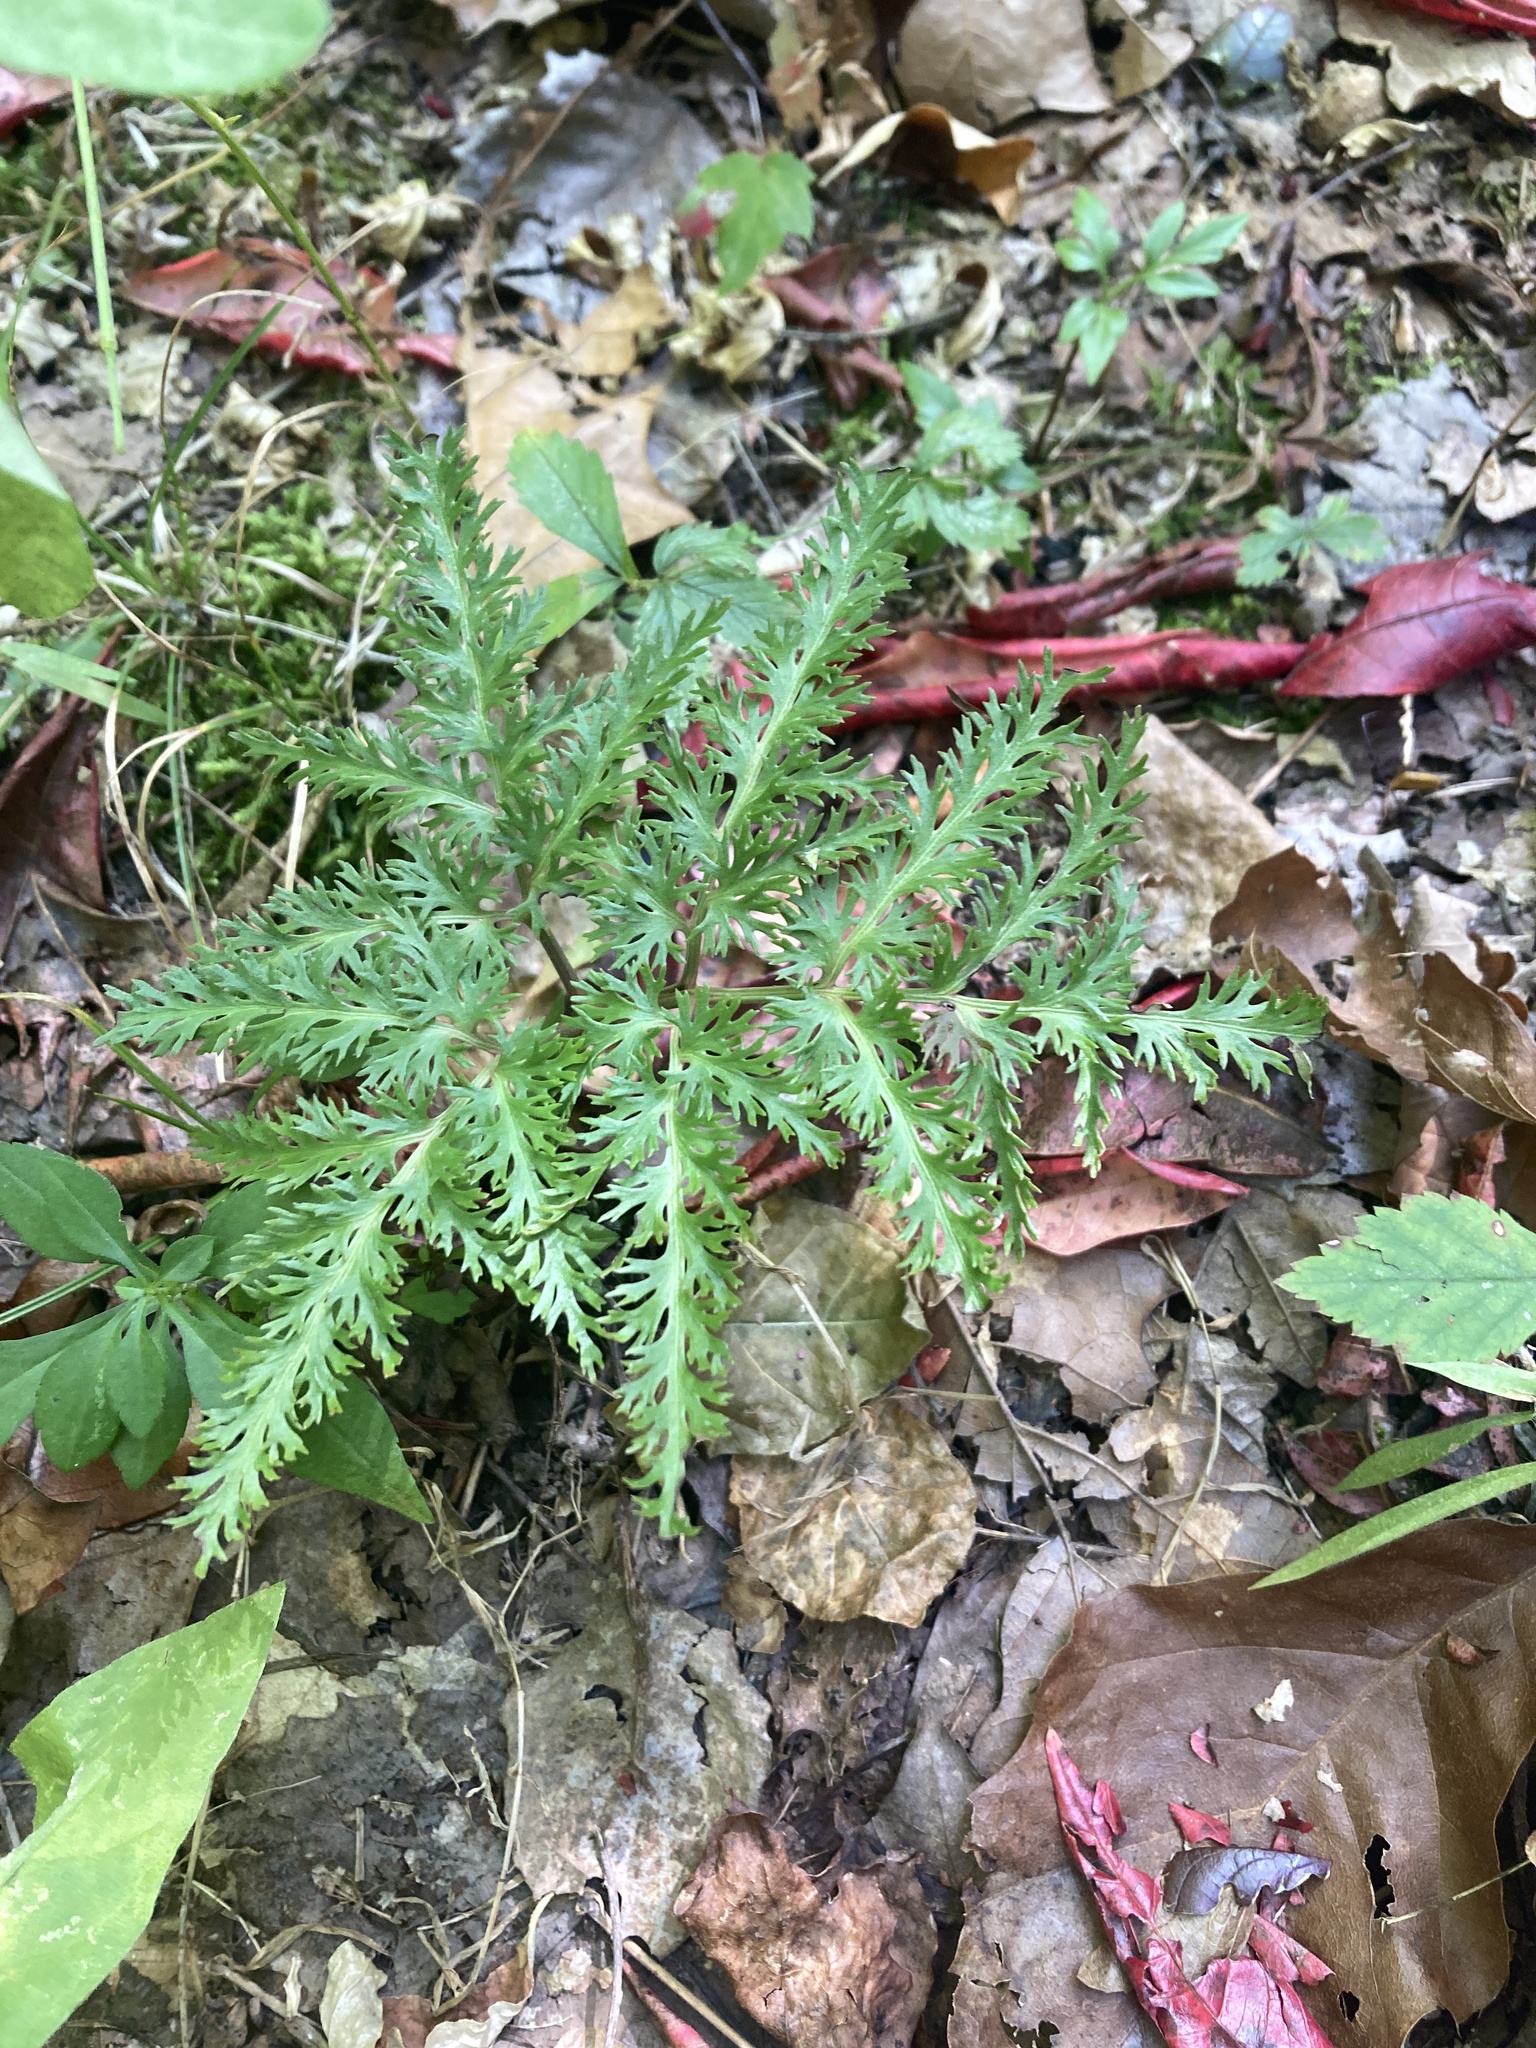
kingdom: Plantae
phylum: Tracheophyta
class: Polypodiopsida
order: Ophioglossales
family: Ophioglossaceae
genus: Sceptridium
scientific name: Sceptridium dissectum
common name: Cut-leaved grapefern
